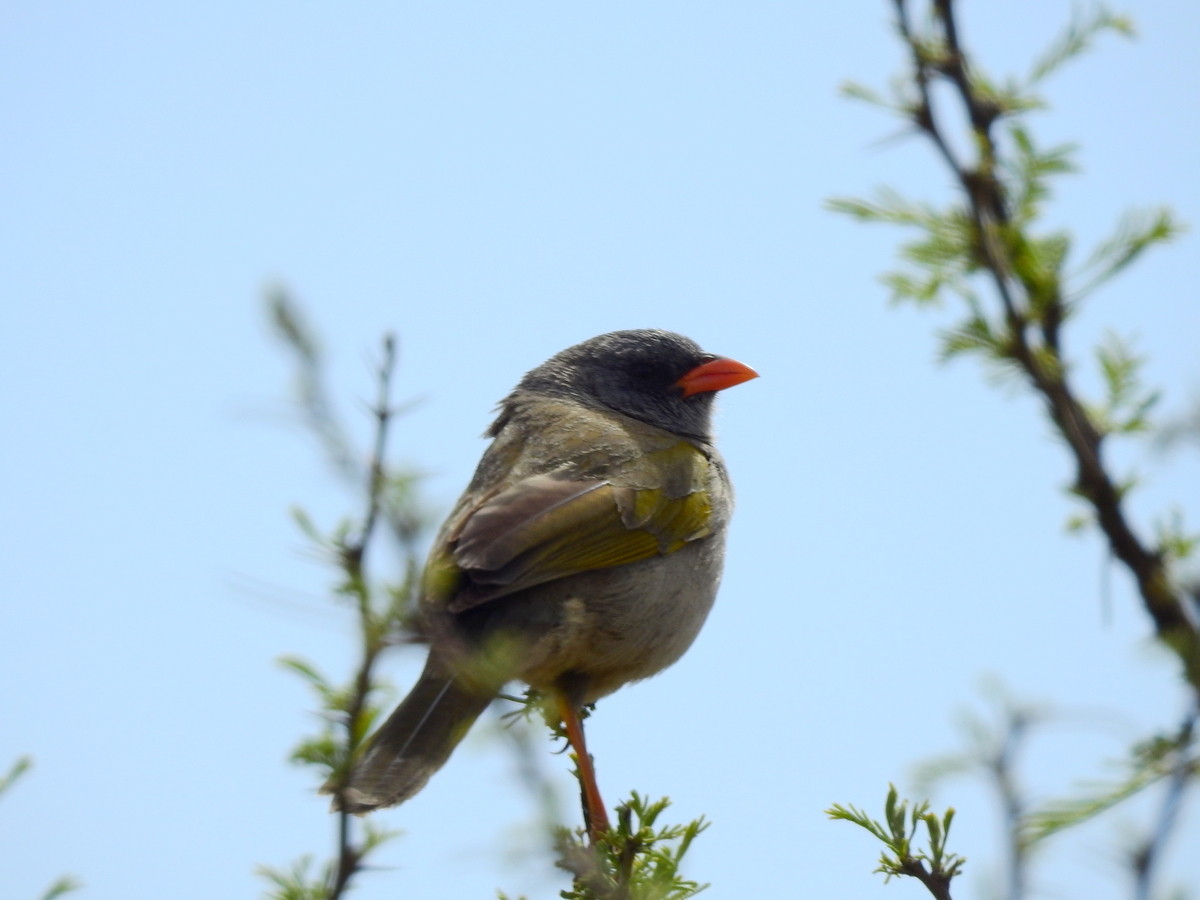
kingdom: Animalia
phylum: Chordata
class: Aves
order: Passeriformes
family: Thraupidae
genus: Embernagra
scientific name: Embernagra platensis
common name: Pampa finch
